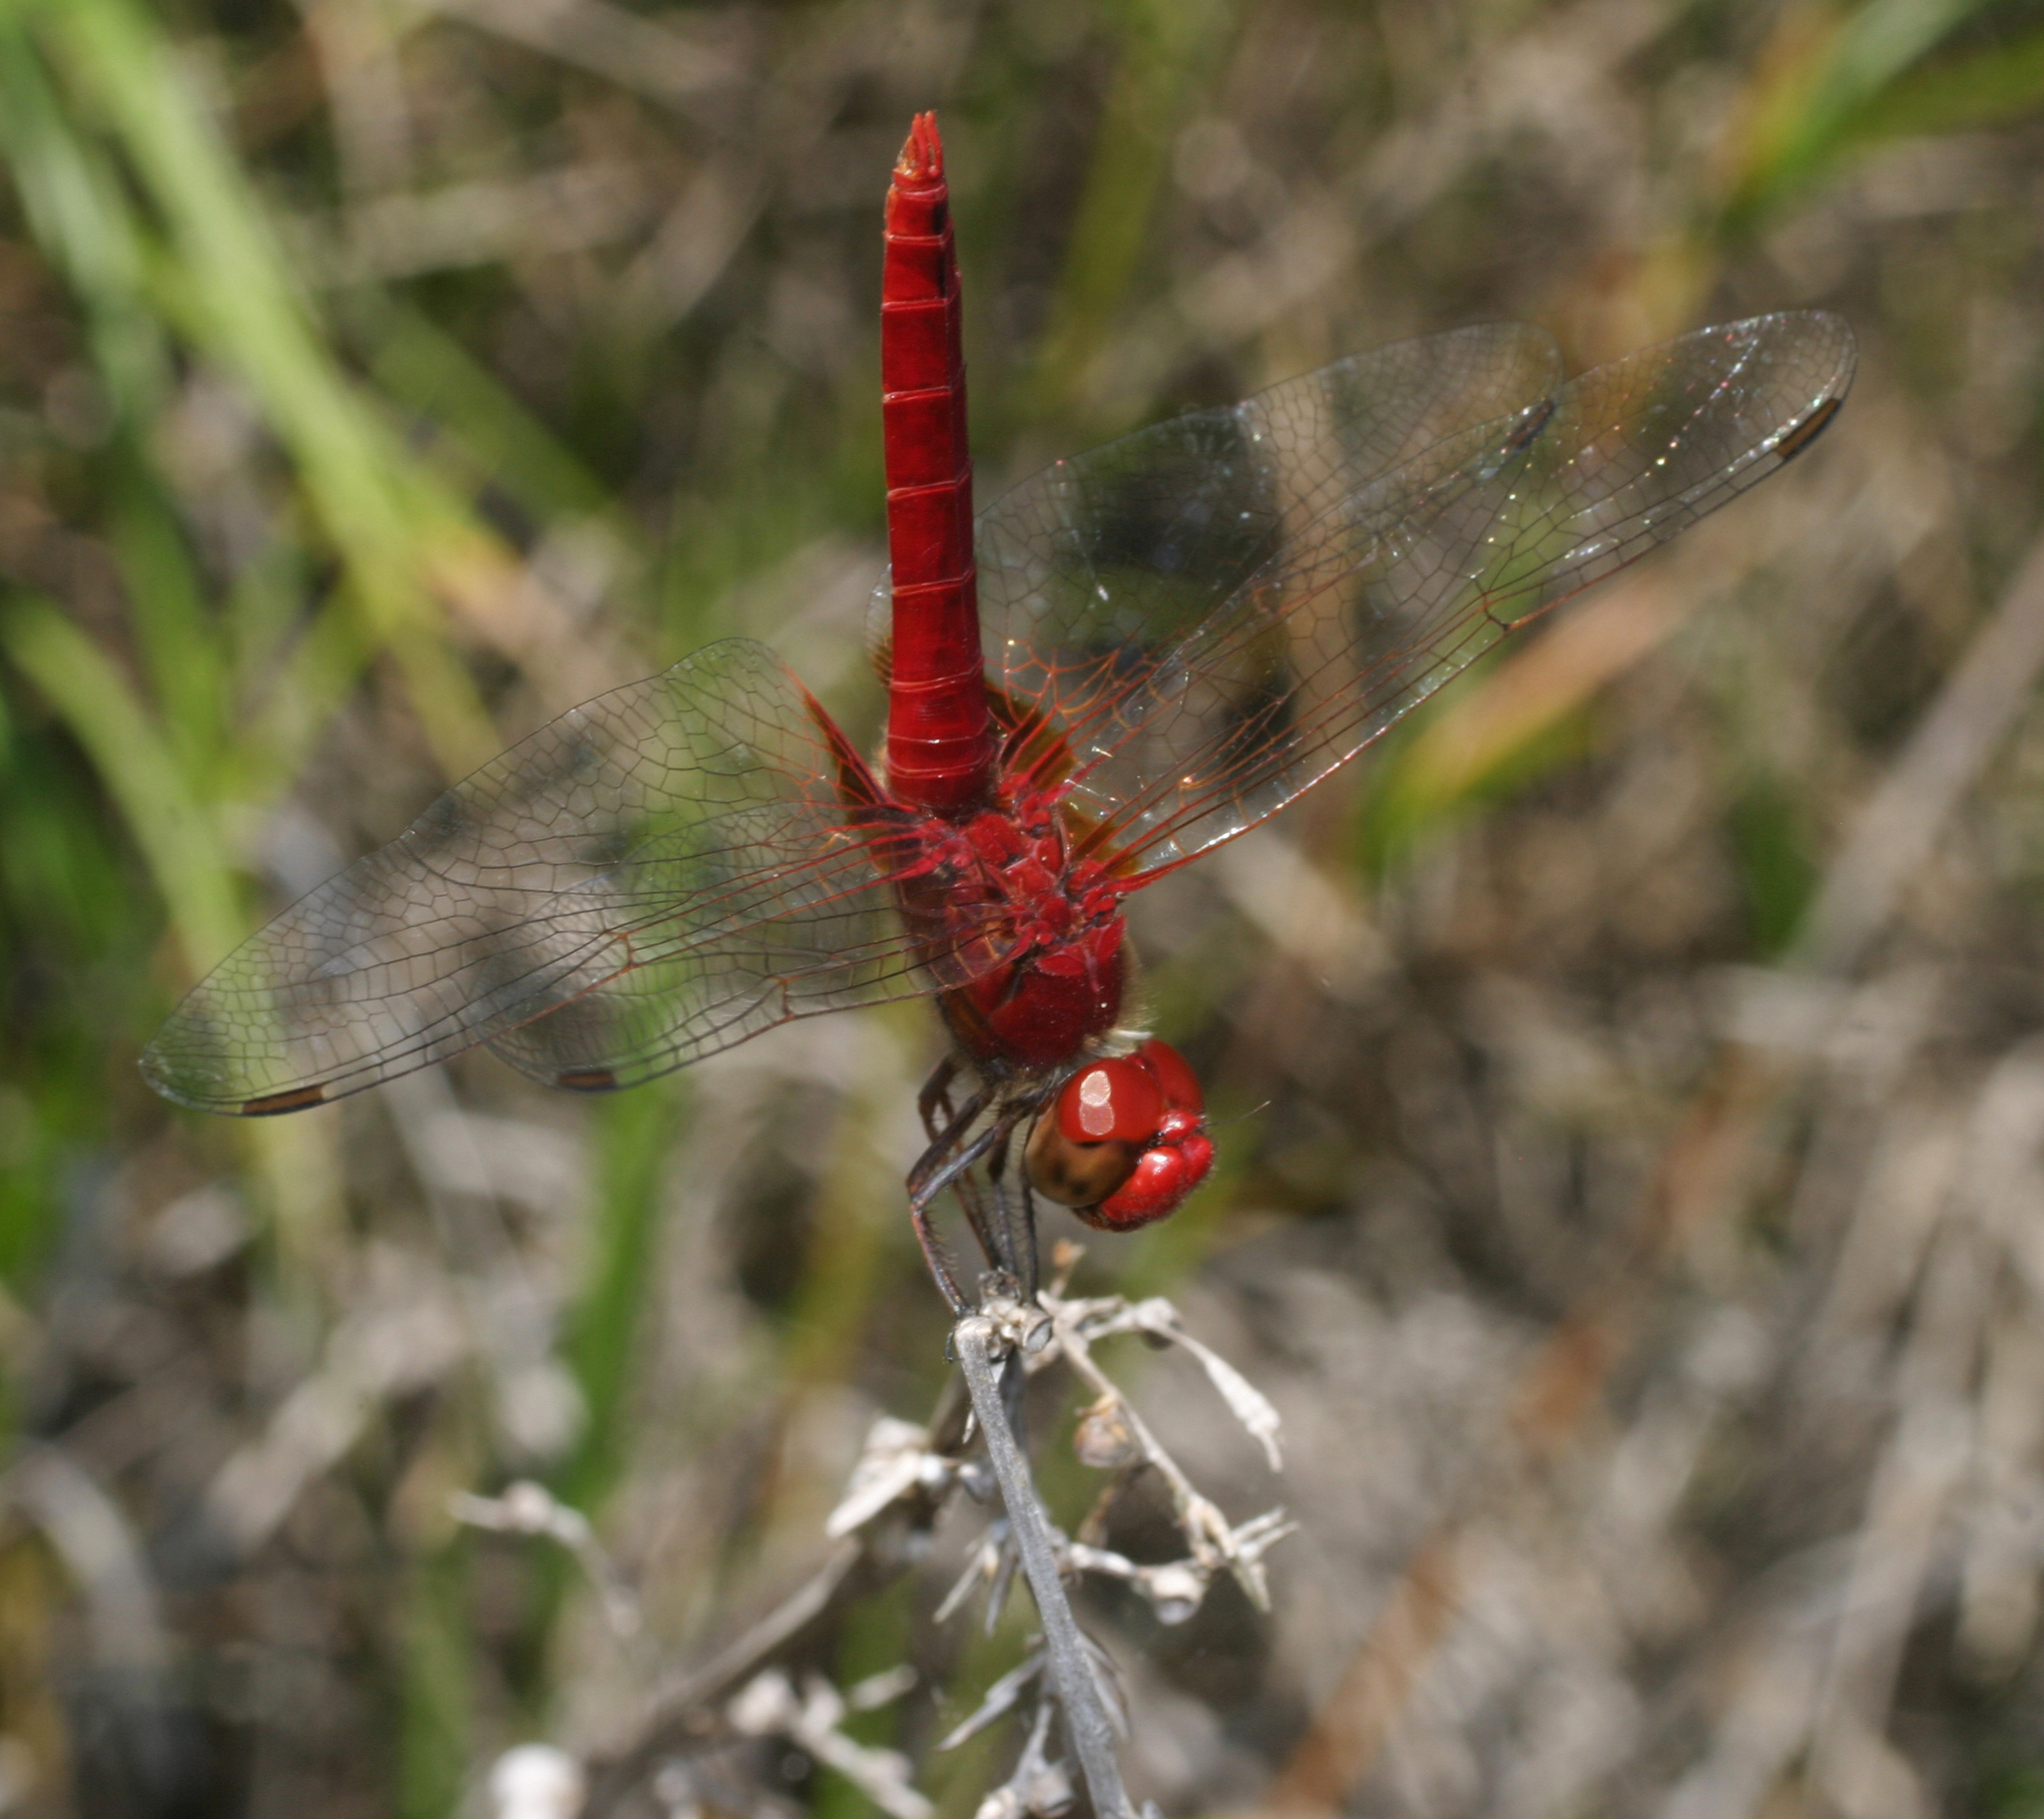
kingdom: Animalia
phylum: Arthropoda
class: Insecta
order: Odonata
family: Libellulidae
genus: Urothemis
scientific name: Urothemis signata
